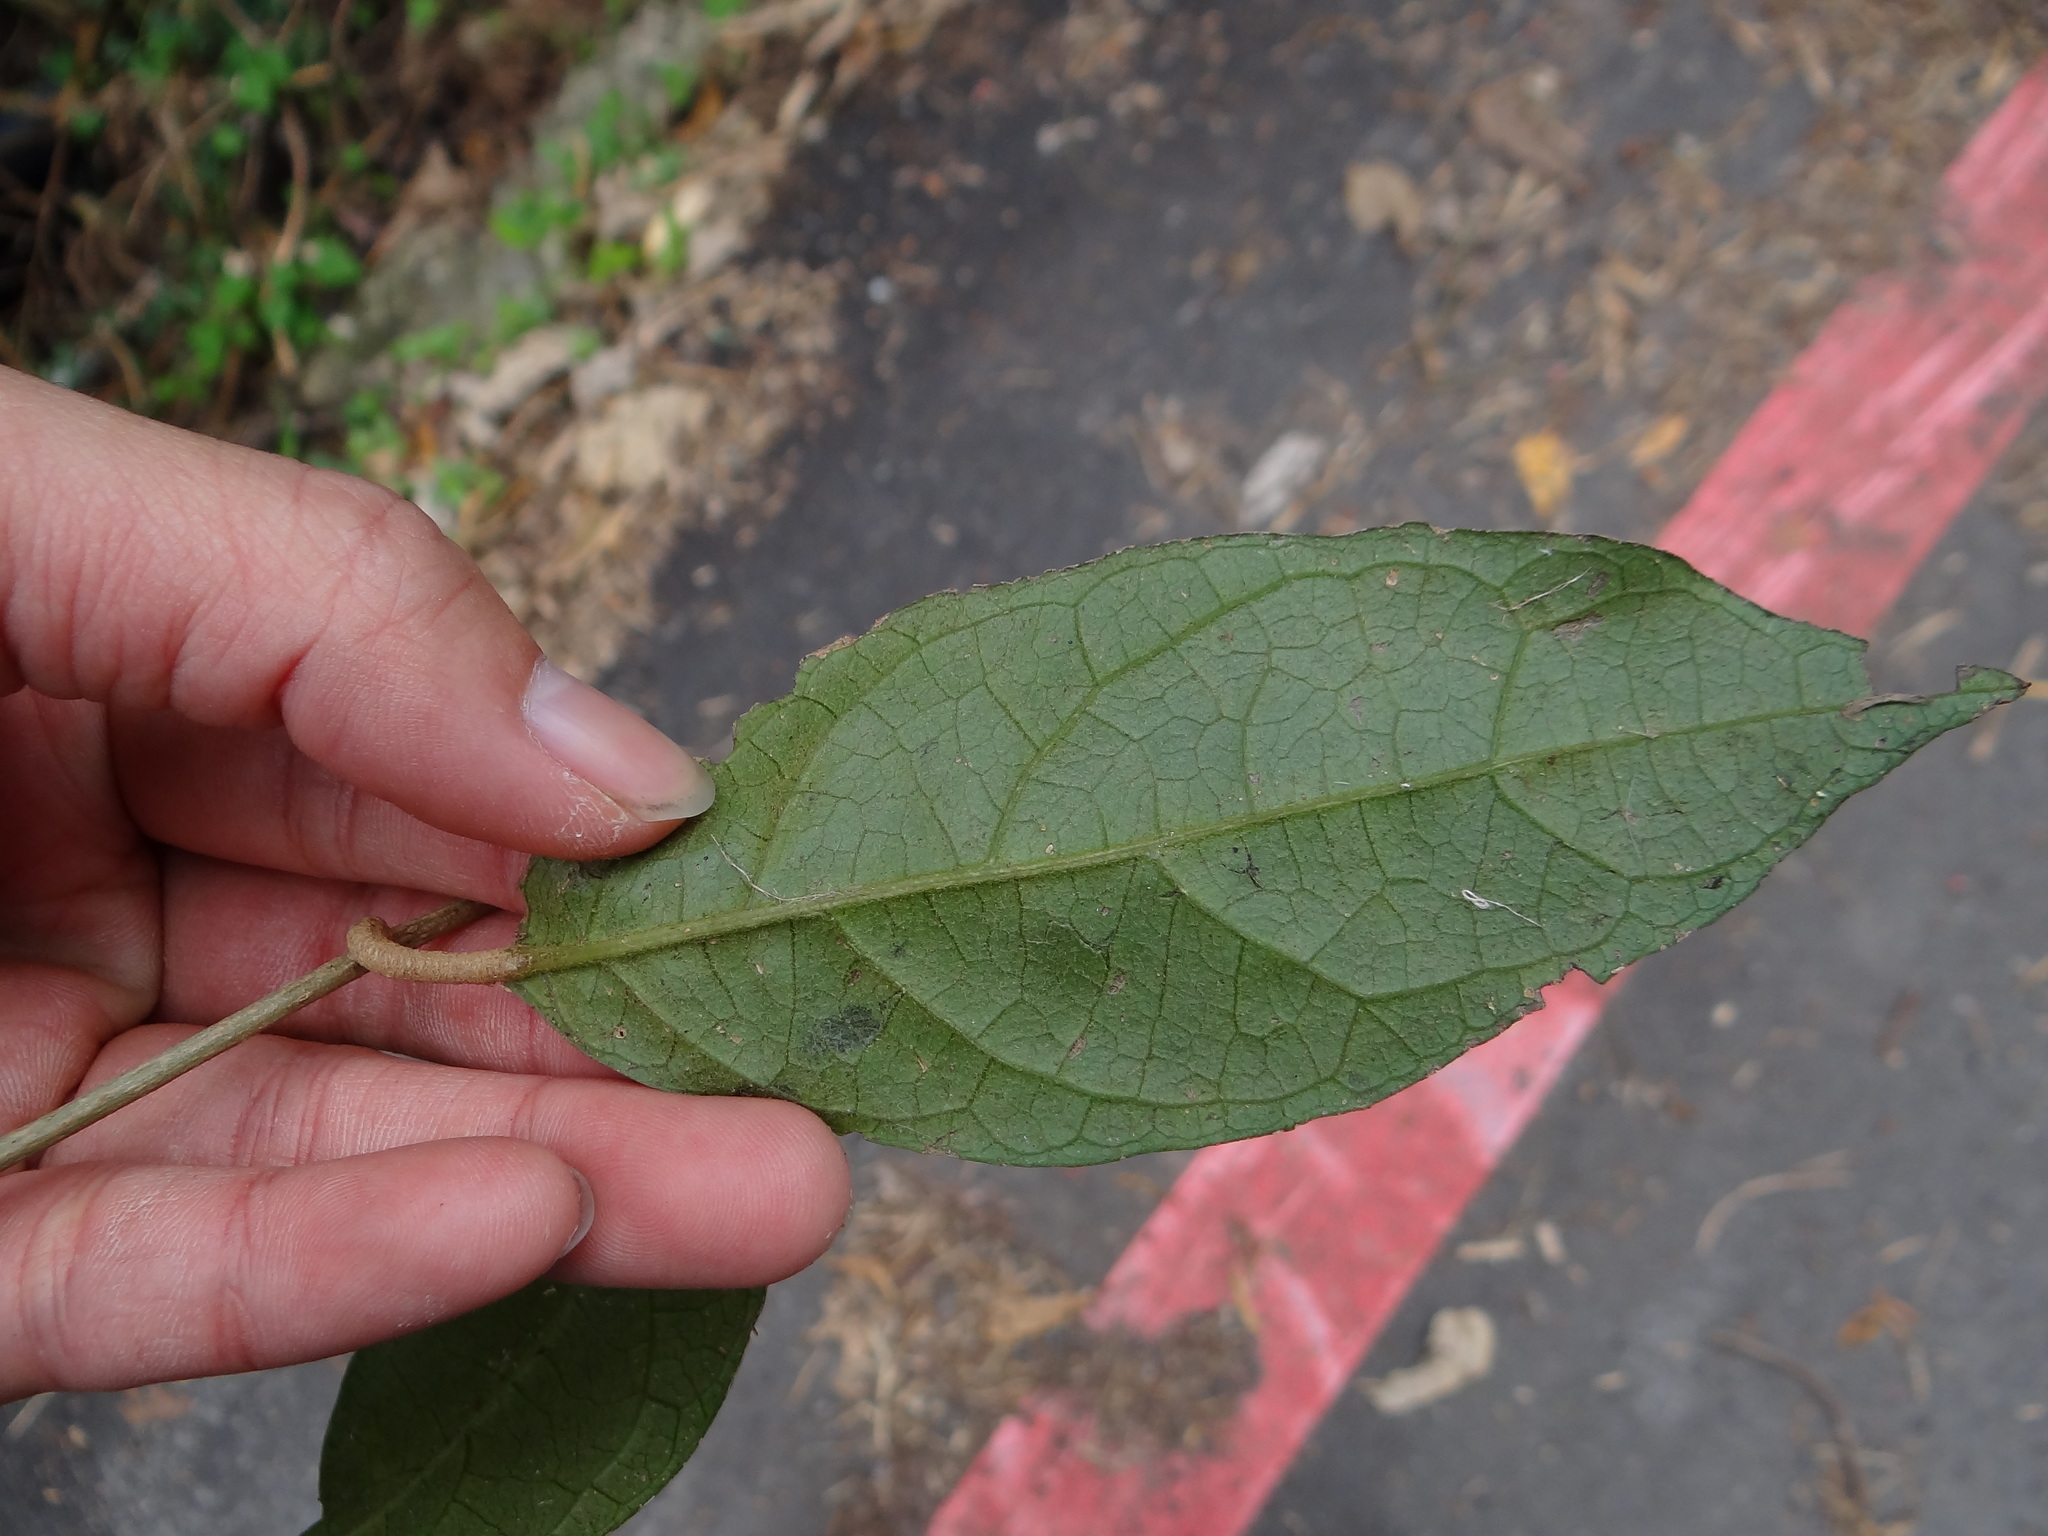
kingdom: Plantae
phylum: Tracheophyta
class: Magnoliopsida
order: Asterales
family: Asteraceae
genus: Decaneuropsis
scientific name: Decaneuropsis gratiosa
